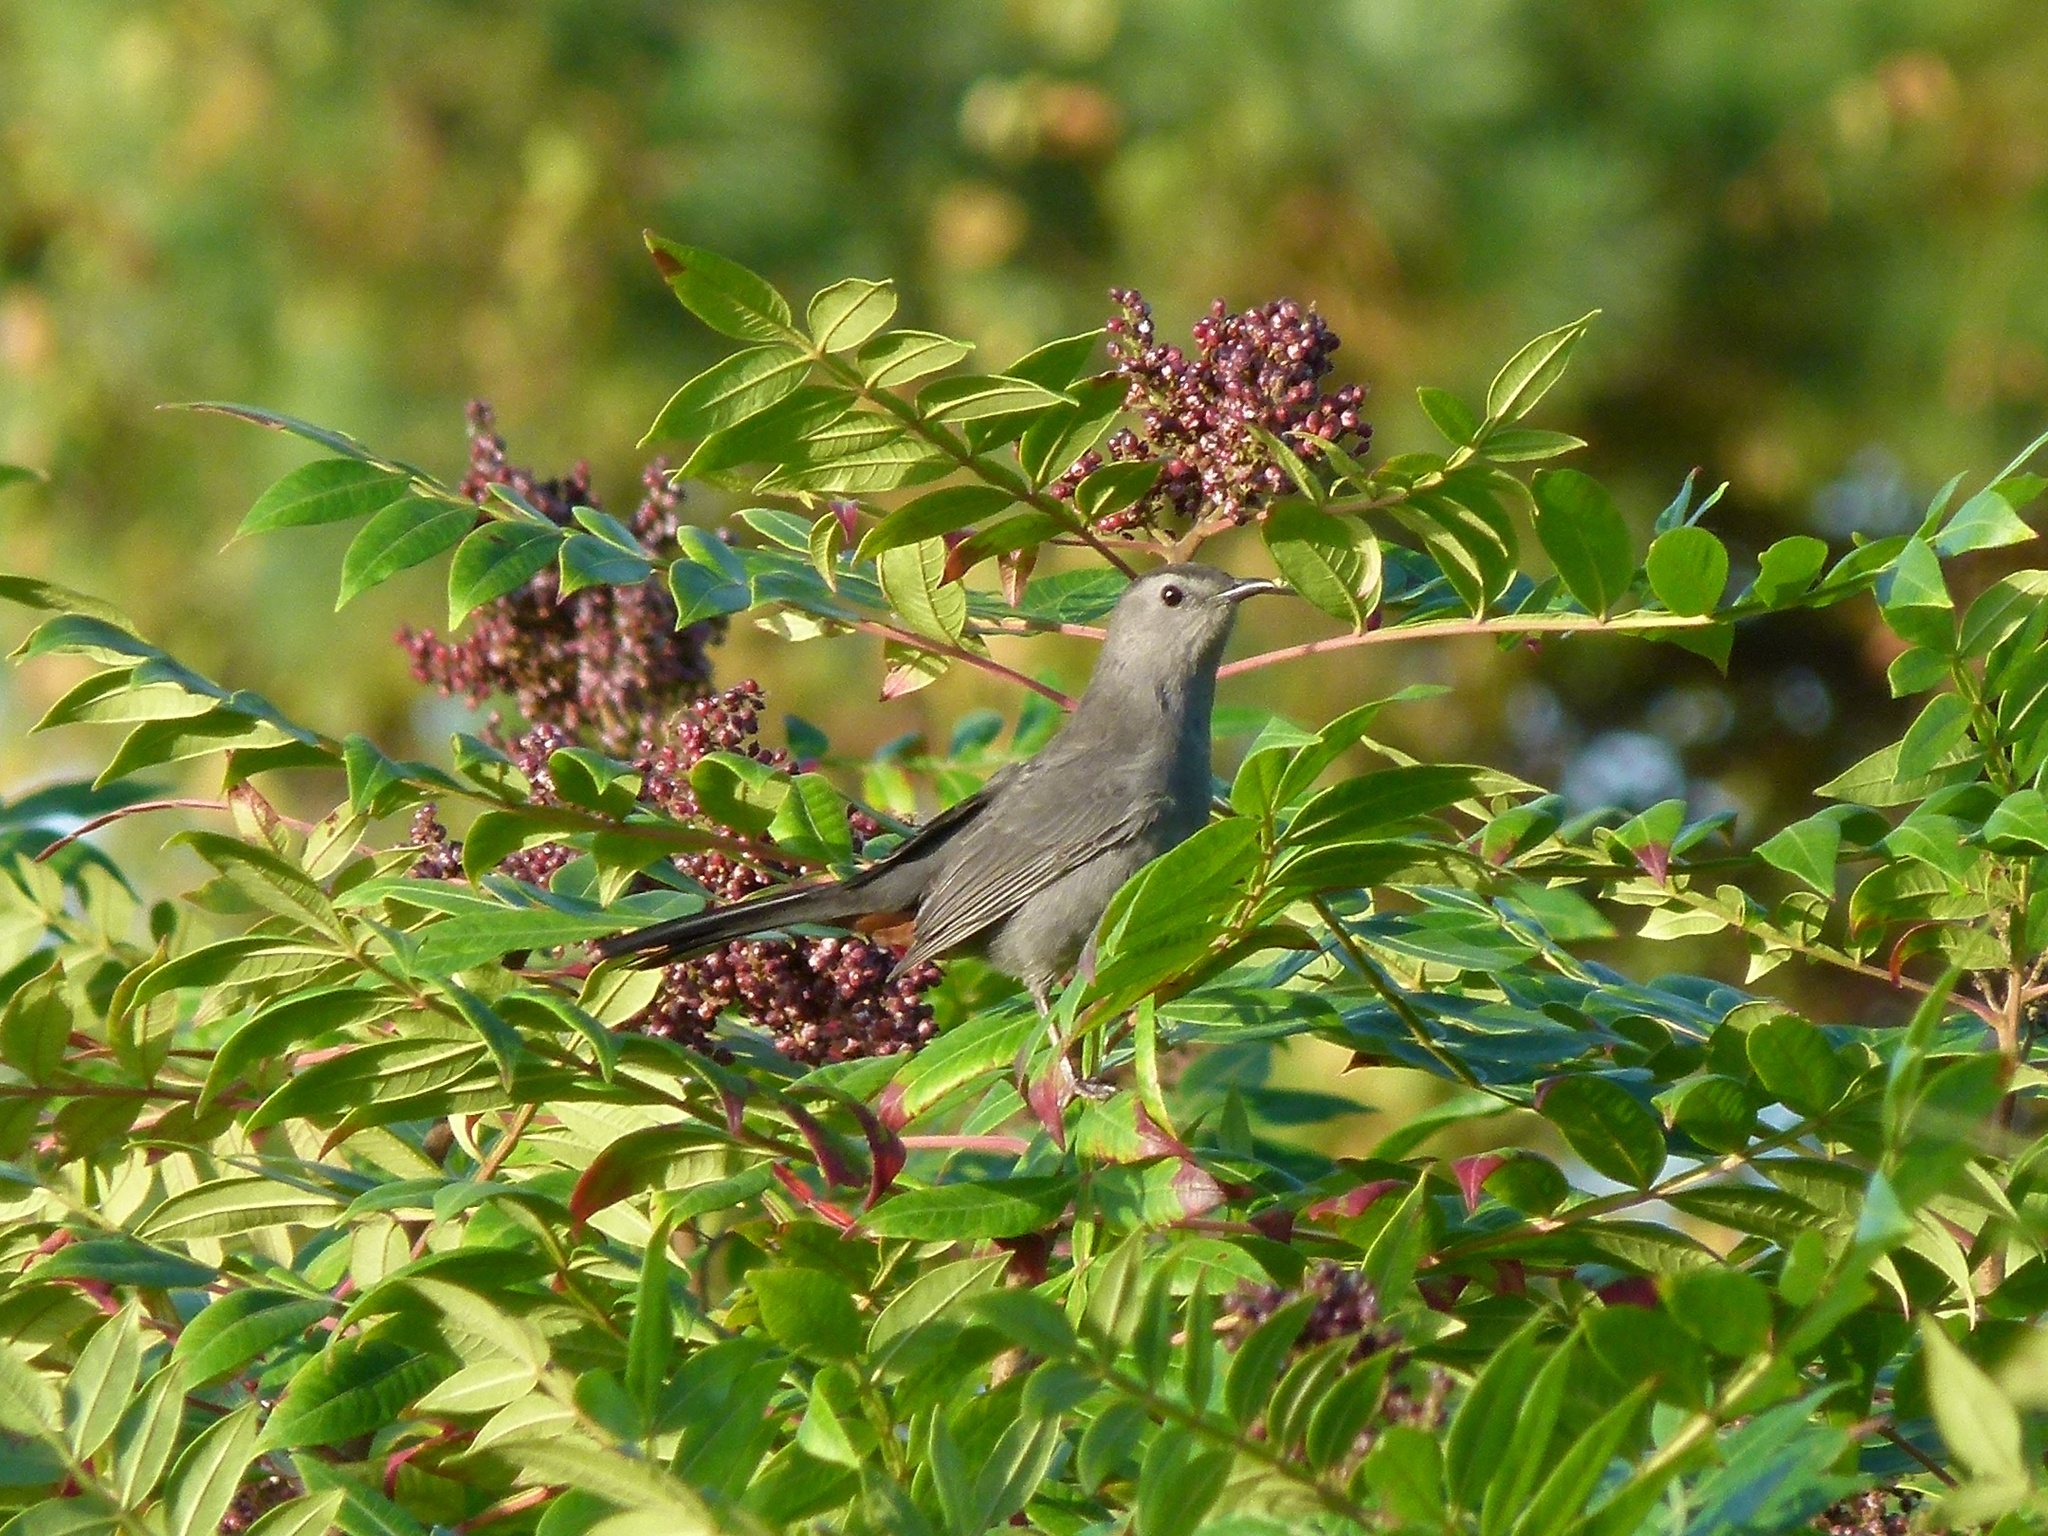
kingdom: Animalia
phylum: Chordata
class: Aves
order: Passeriformes
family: Mimidae
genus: Dumetella
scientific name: Dumetella carolinensis
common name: Gray catbird
